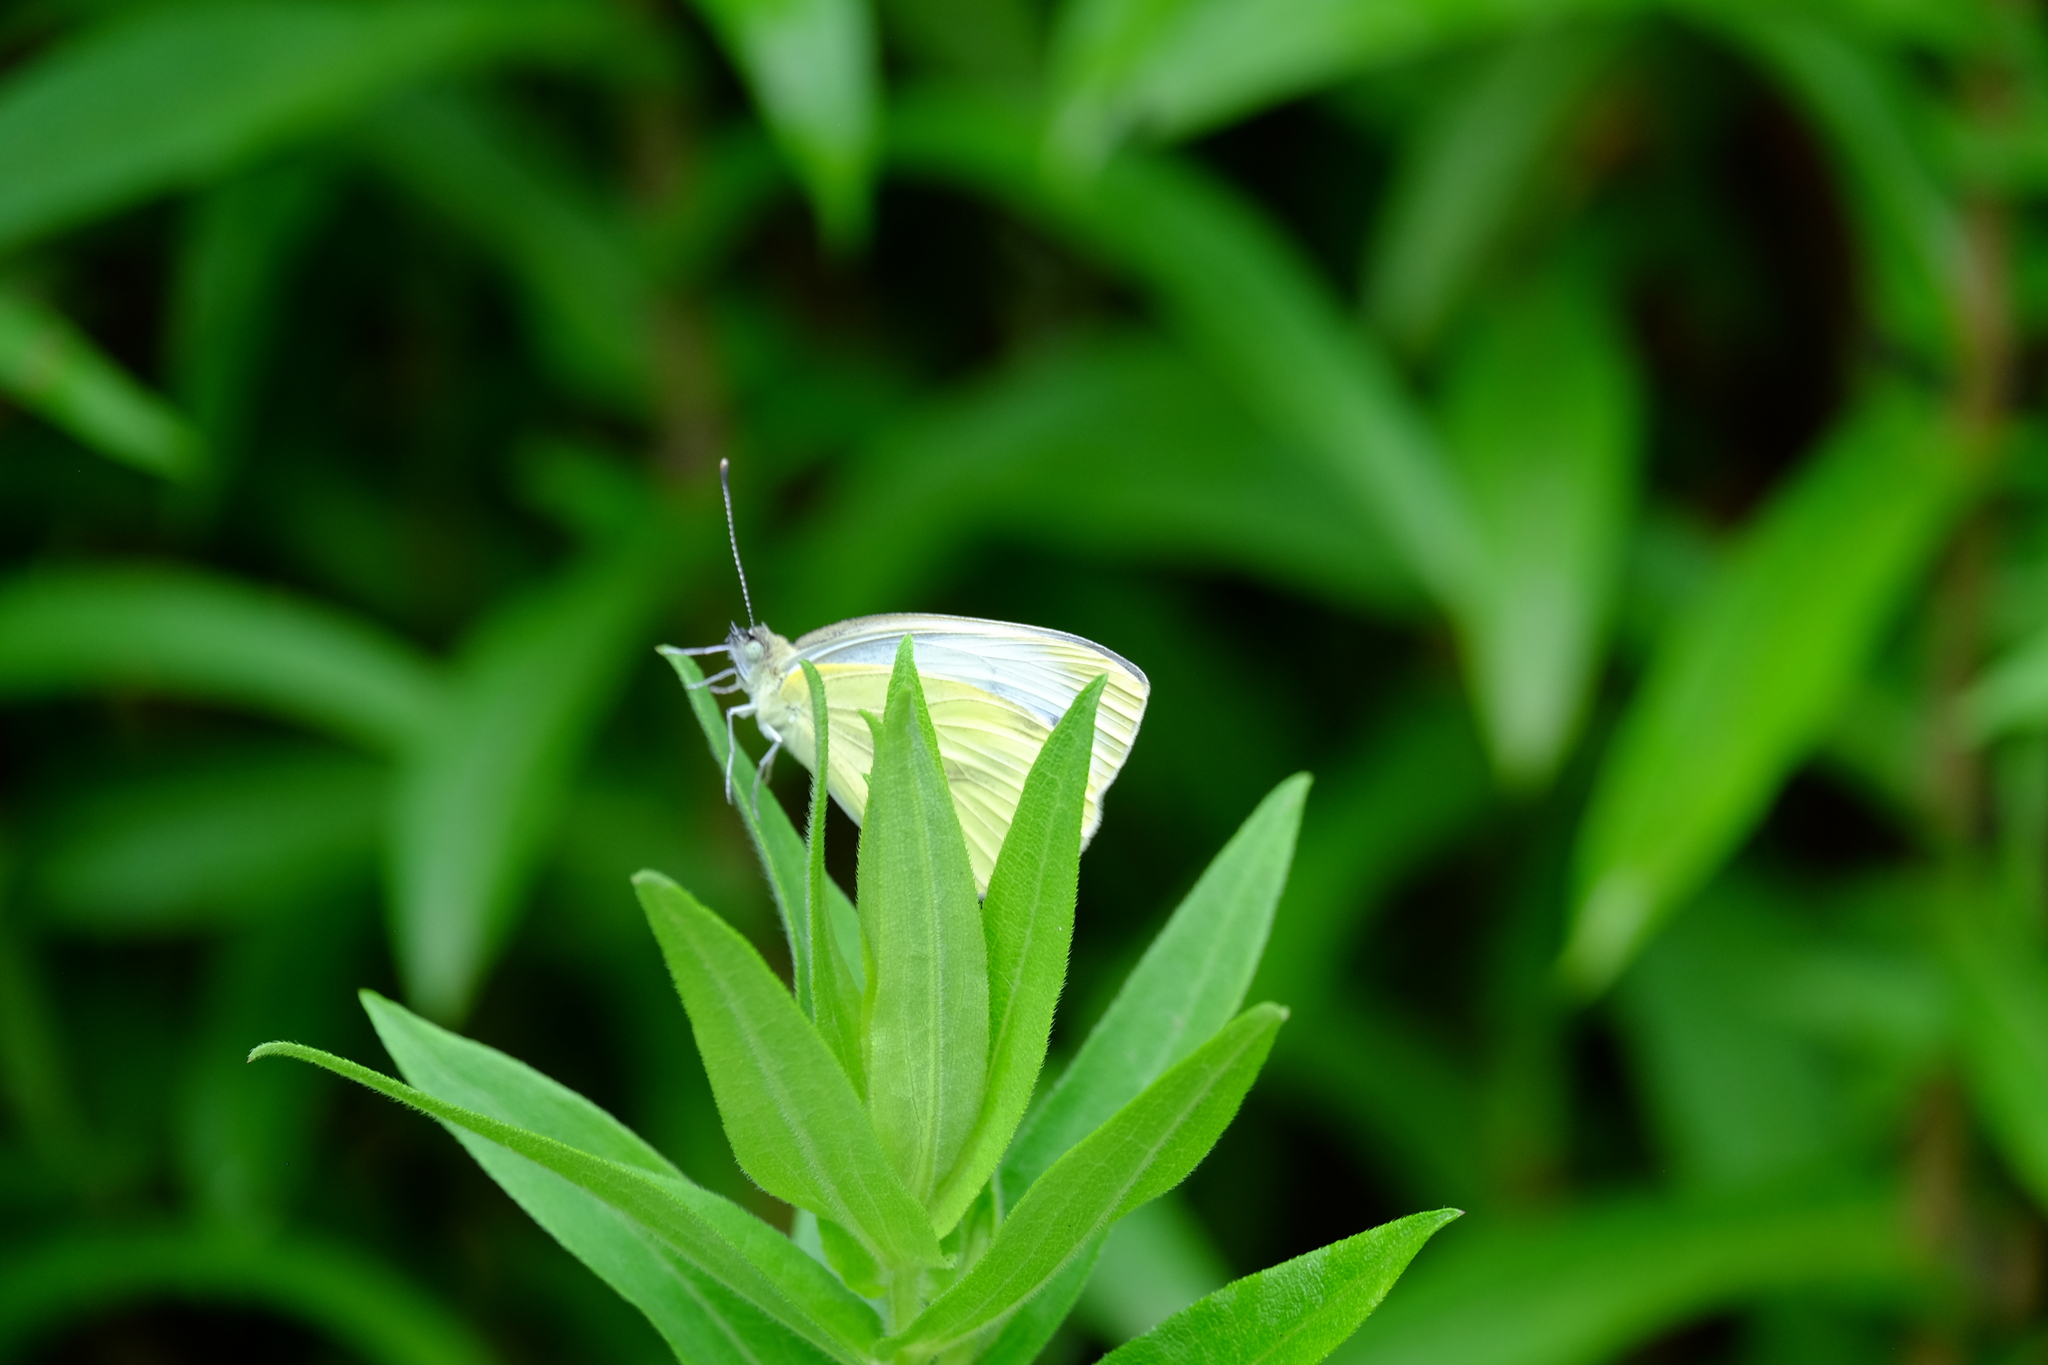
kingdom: Animalia
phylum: Arthropoda
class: Insecta
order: Lepidoptera
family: Pieridae
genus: Pieris
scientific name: Pieris napi
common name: Green-veined white
